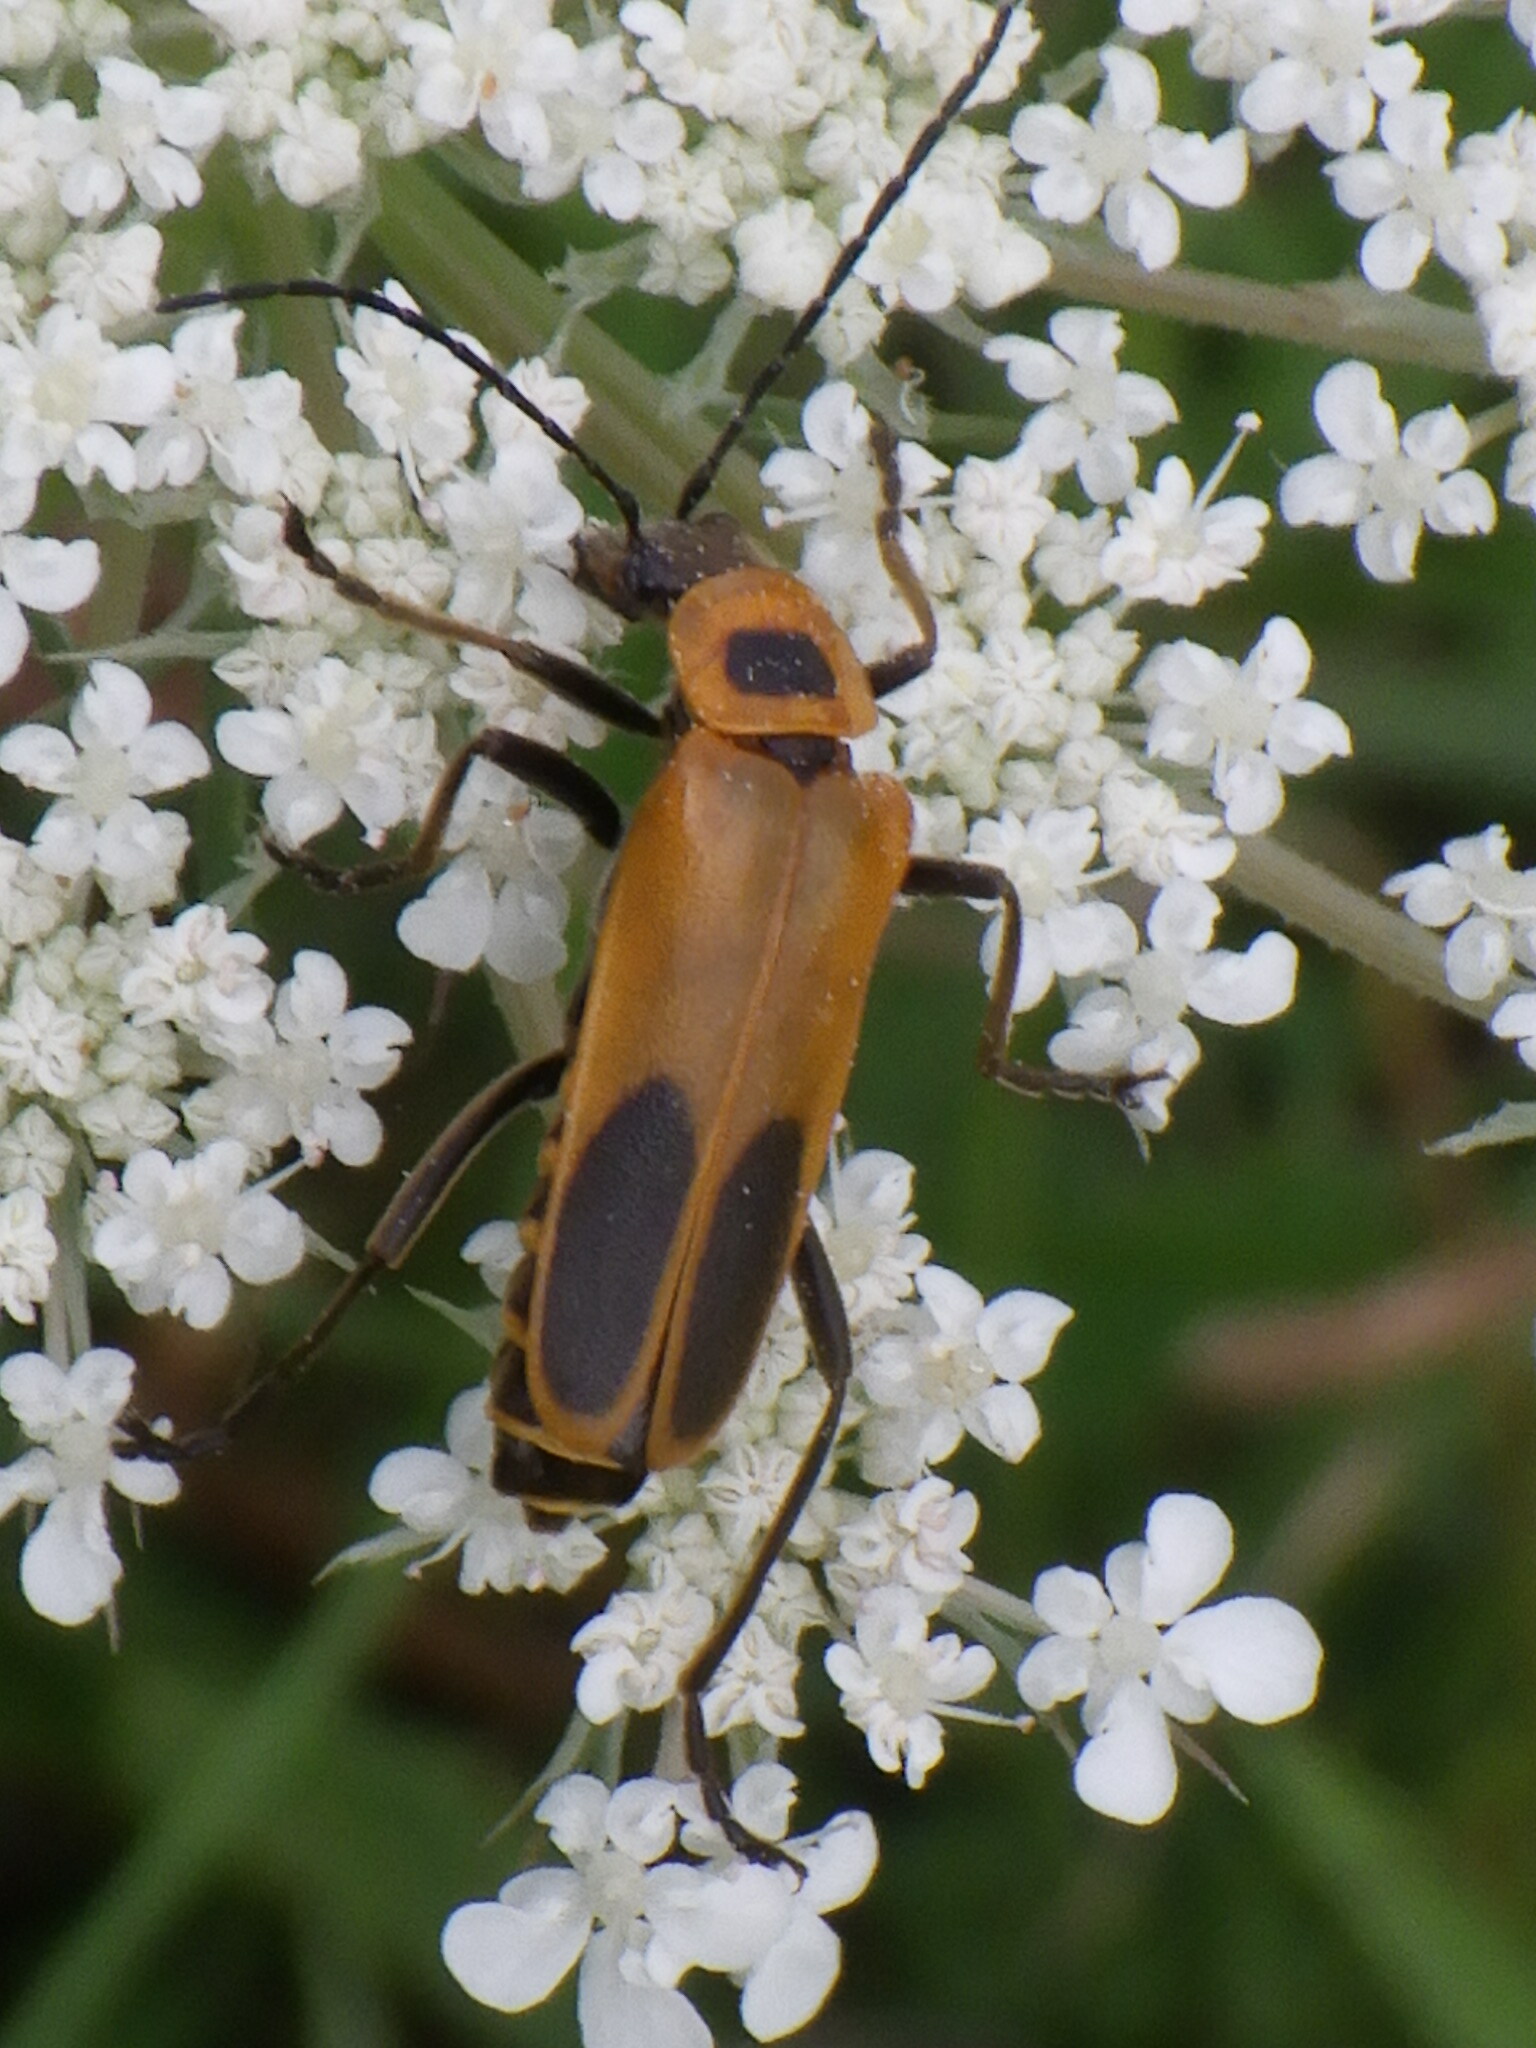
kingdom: Animalia
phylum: Arthropoda
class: Insecta
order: Coleoptera
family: Cantharidae
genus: Chauliognathus
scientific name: Chauliognathus pensylvanicus
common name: Goldenrod soldier beetle
